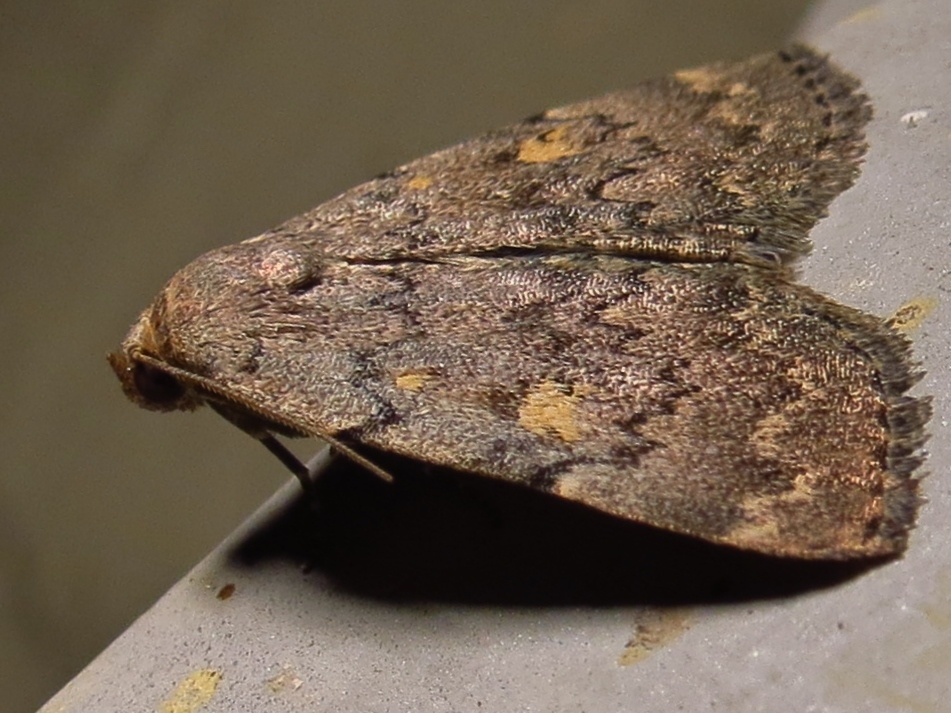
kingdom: Animalia
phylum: Arthropoda
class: Insecta
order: Lepidoptera
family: Erebidae
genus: Idia
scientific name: Idia aemula
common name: Common idia moth
